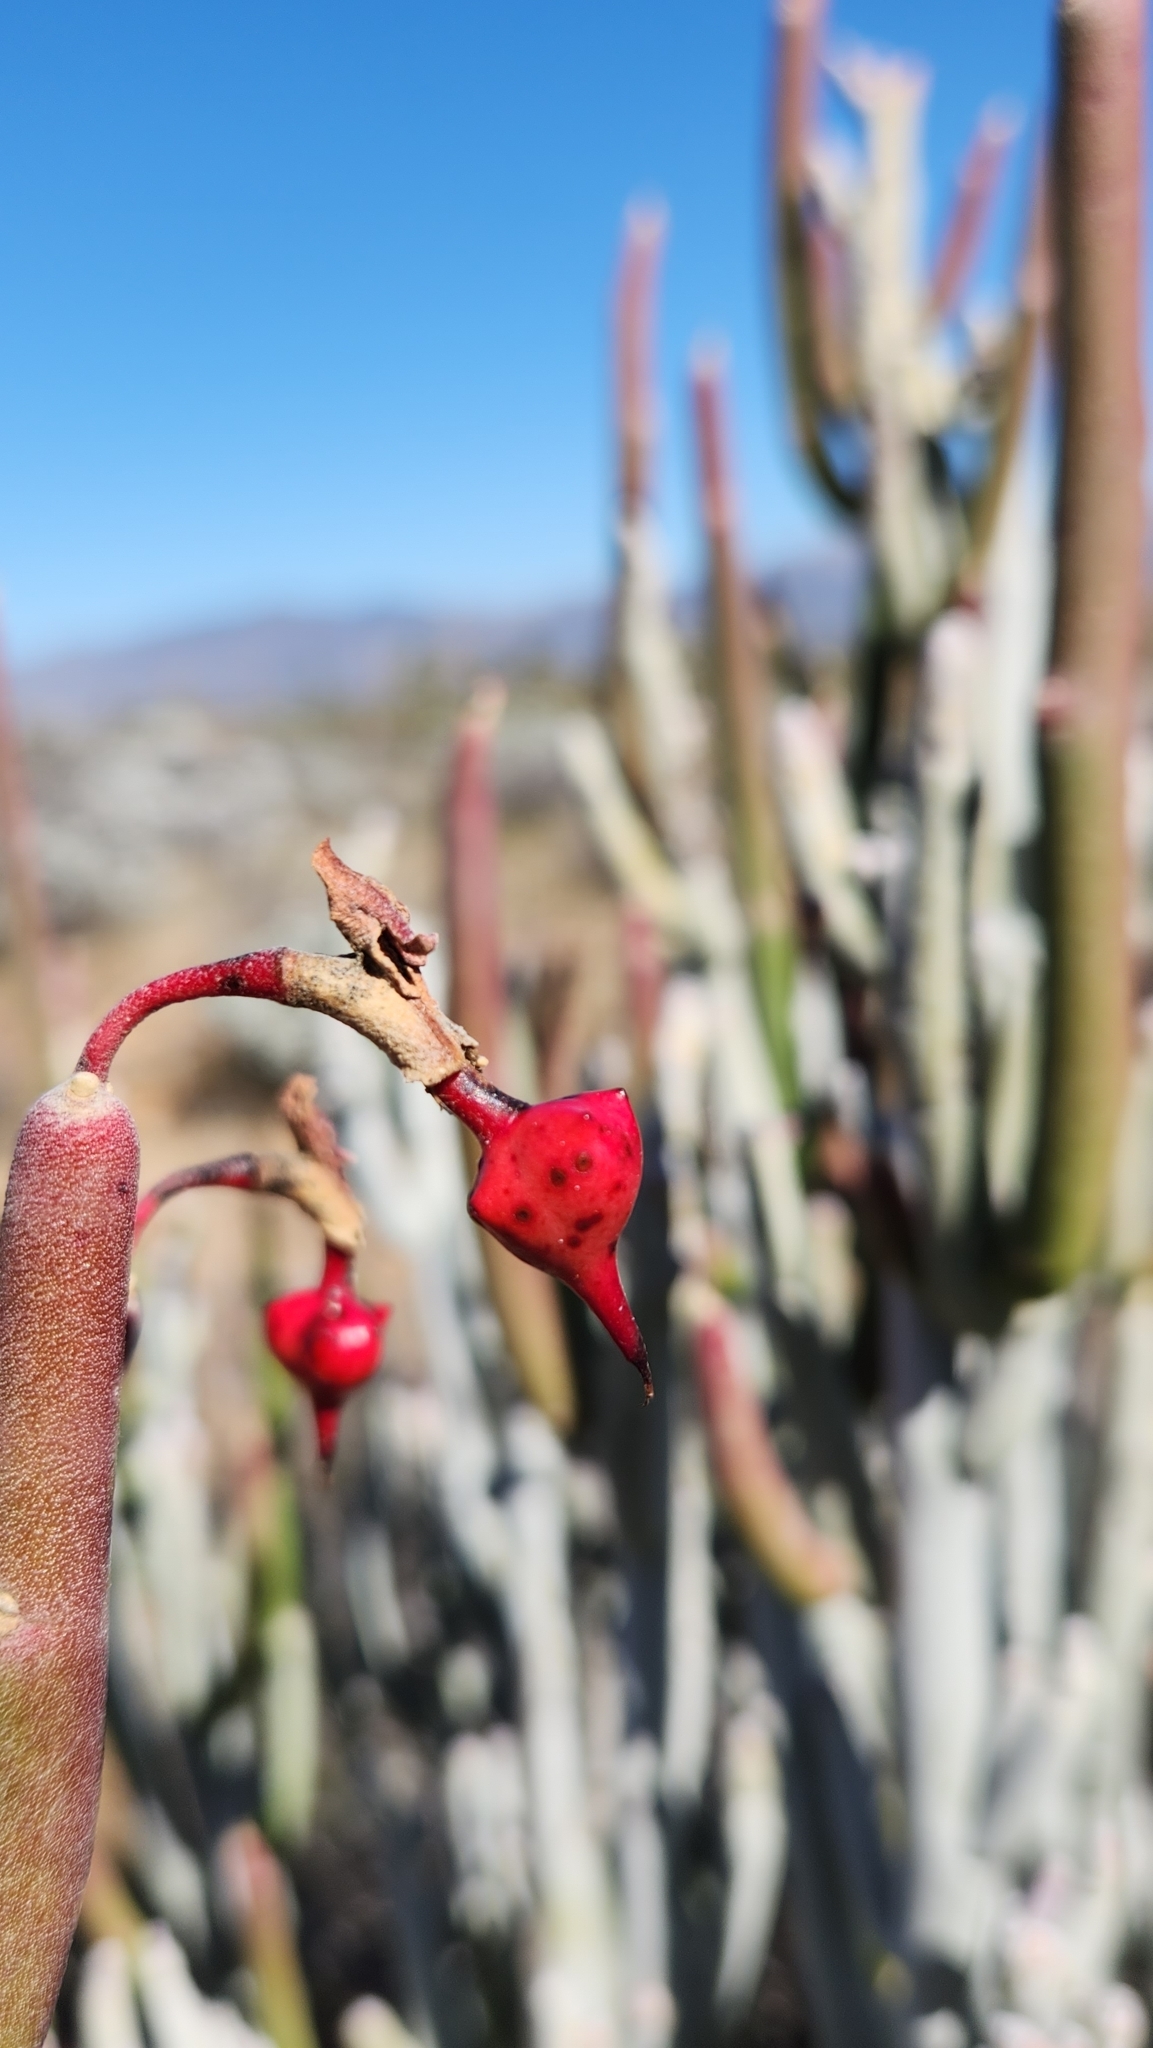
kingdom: Plantae
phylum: Tracheophyta
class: Magnoliopsida
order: Malpighiales
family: Euphorbiaceae
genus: Euphorbia
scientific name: Euphorbia lomelii
